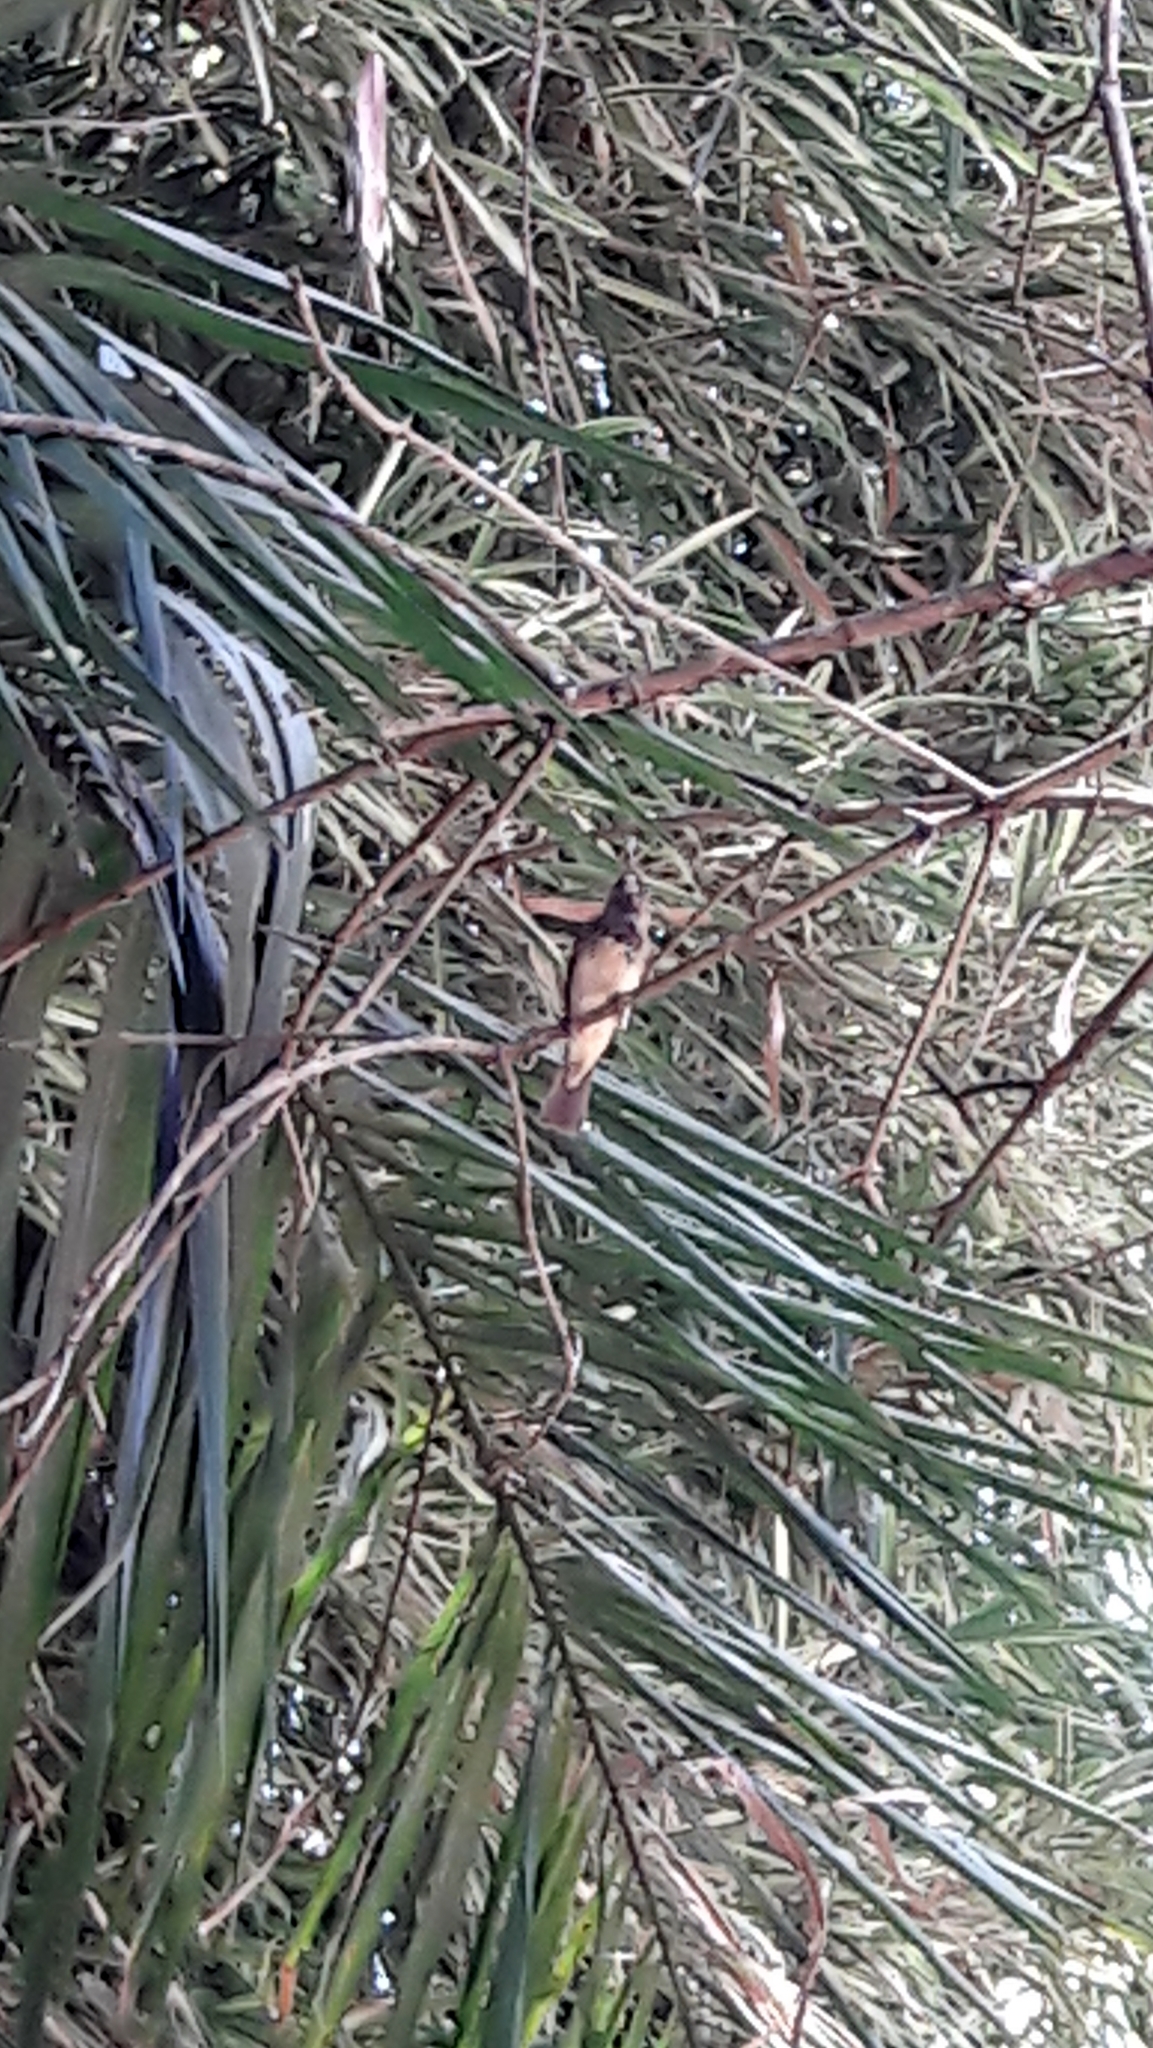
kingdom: Animalia
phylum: Chordata
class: Aves
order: Passeriformes
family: Thraupidae
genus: Sporophila
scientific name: Sporophila nigricollis
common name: Yellow-bellied seedeater
